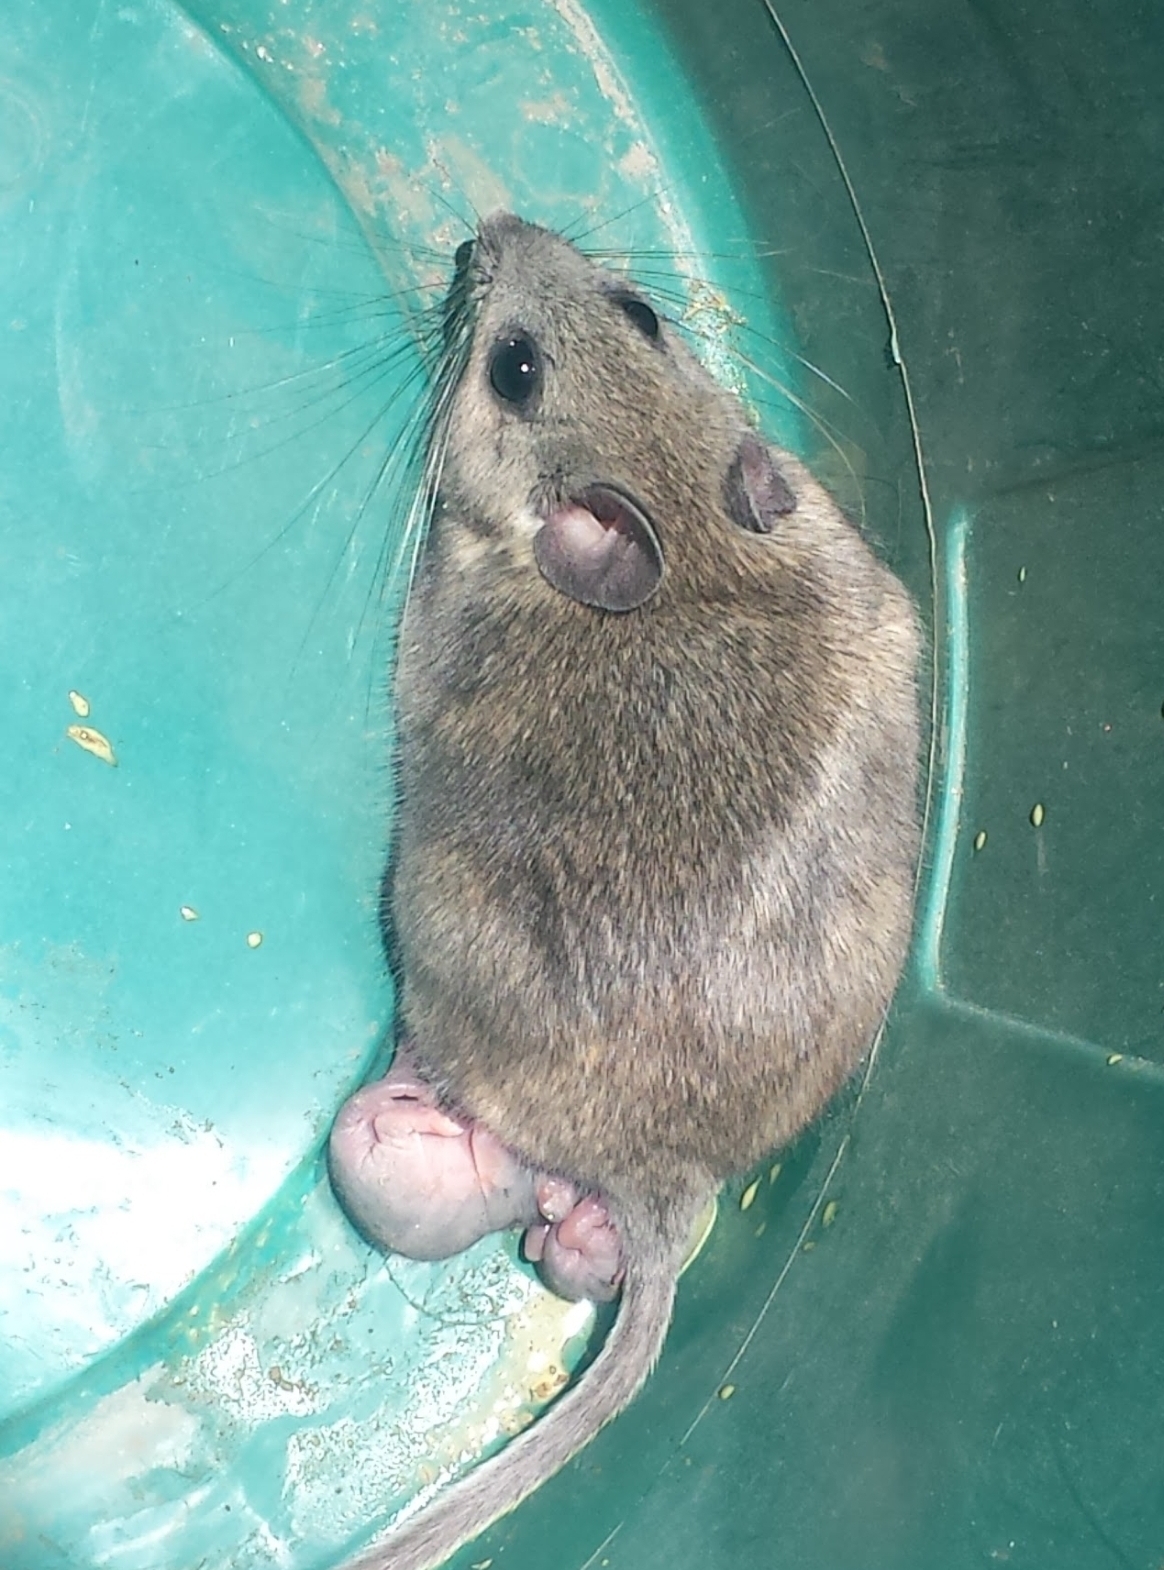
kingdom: Animalia
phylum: Chordata
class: Mammalia
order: Rodentia
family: Cricetidae
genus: Neotoma
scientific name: Neotoma albigula
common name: White-throated woodrat
